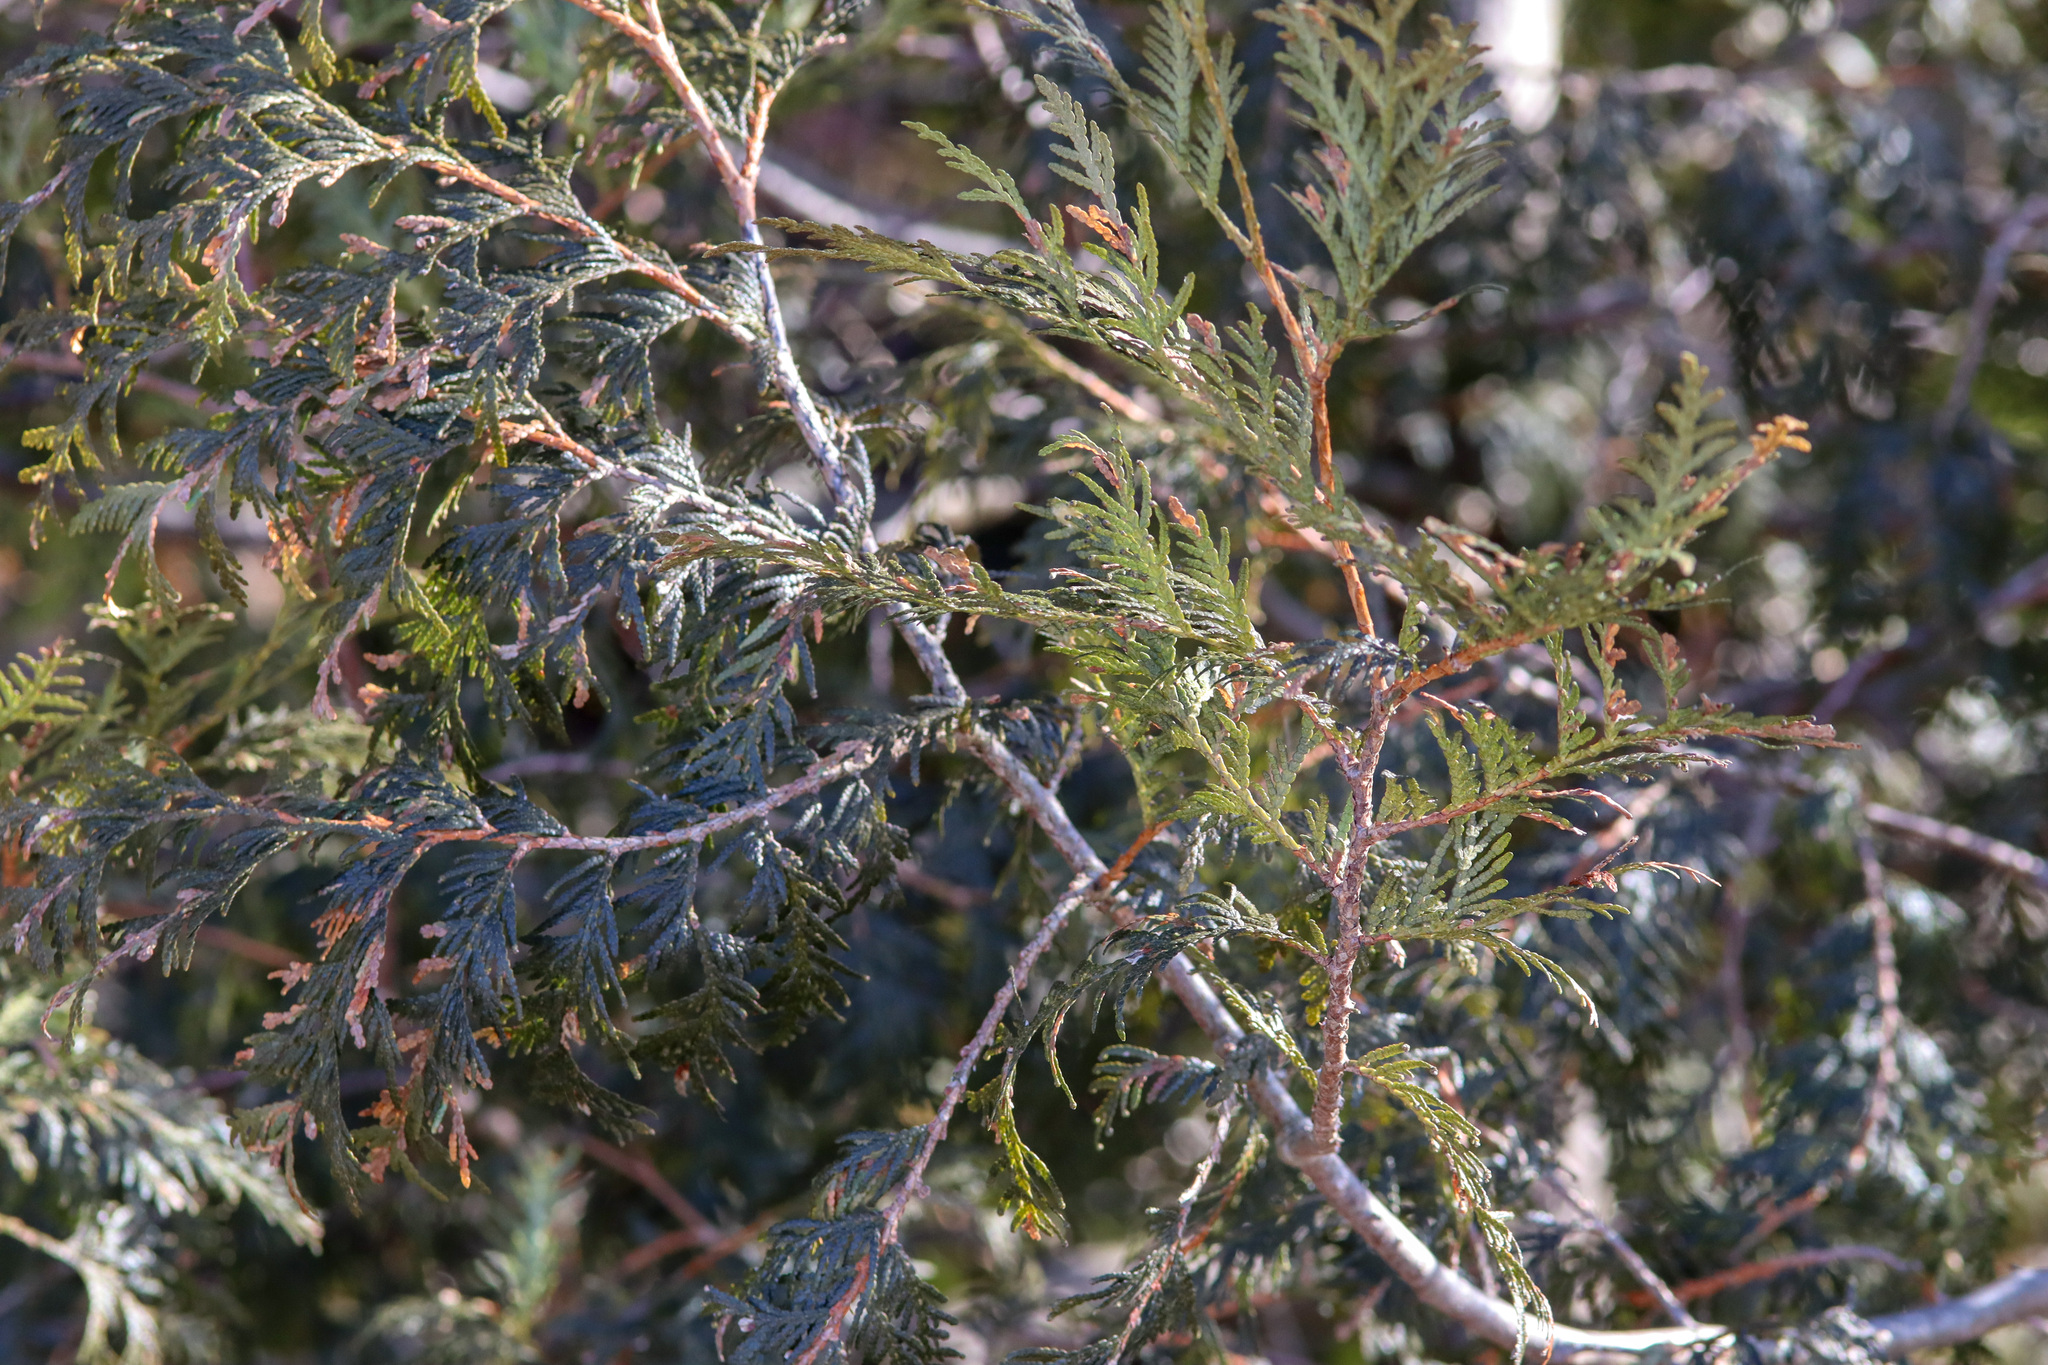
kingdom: Plantae
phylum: Tracheophyta
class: Pinopsida
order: Pinales
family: Cupressaceae
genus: Thuja
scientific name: Thuja occidentalis
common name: Northern white-cedar
